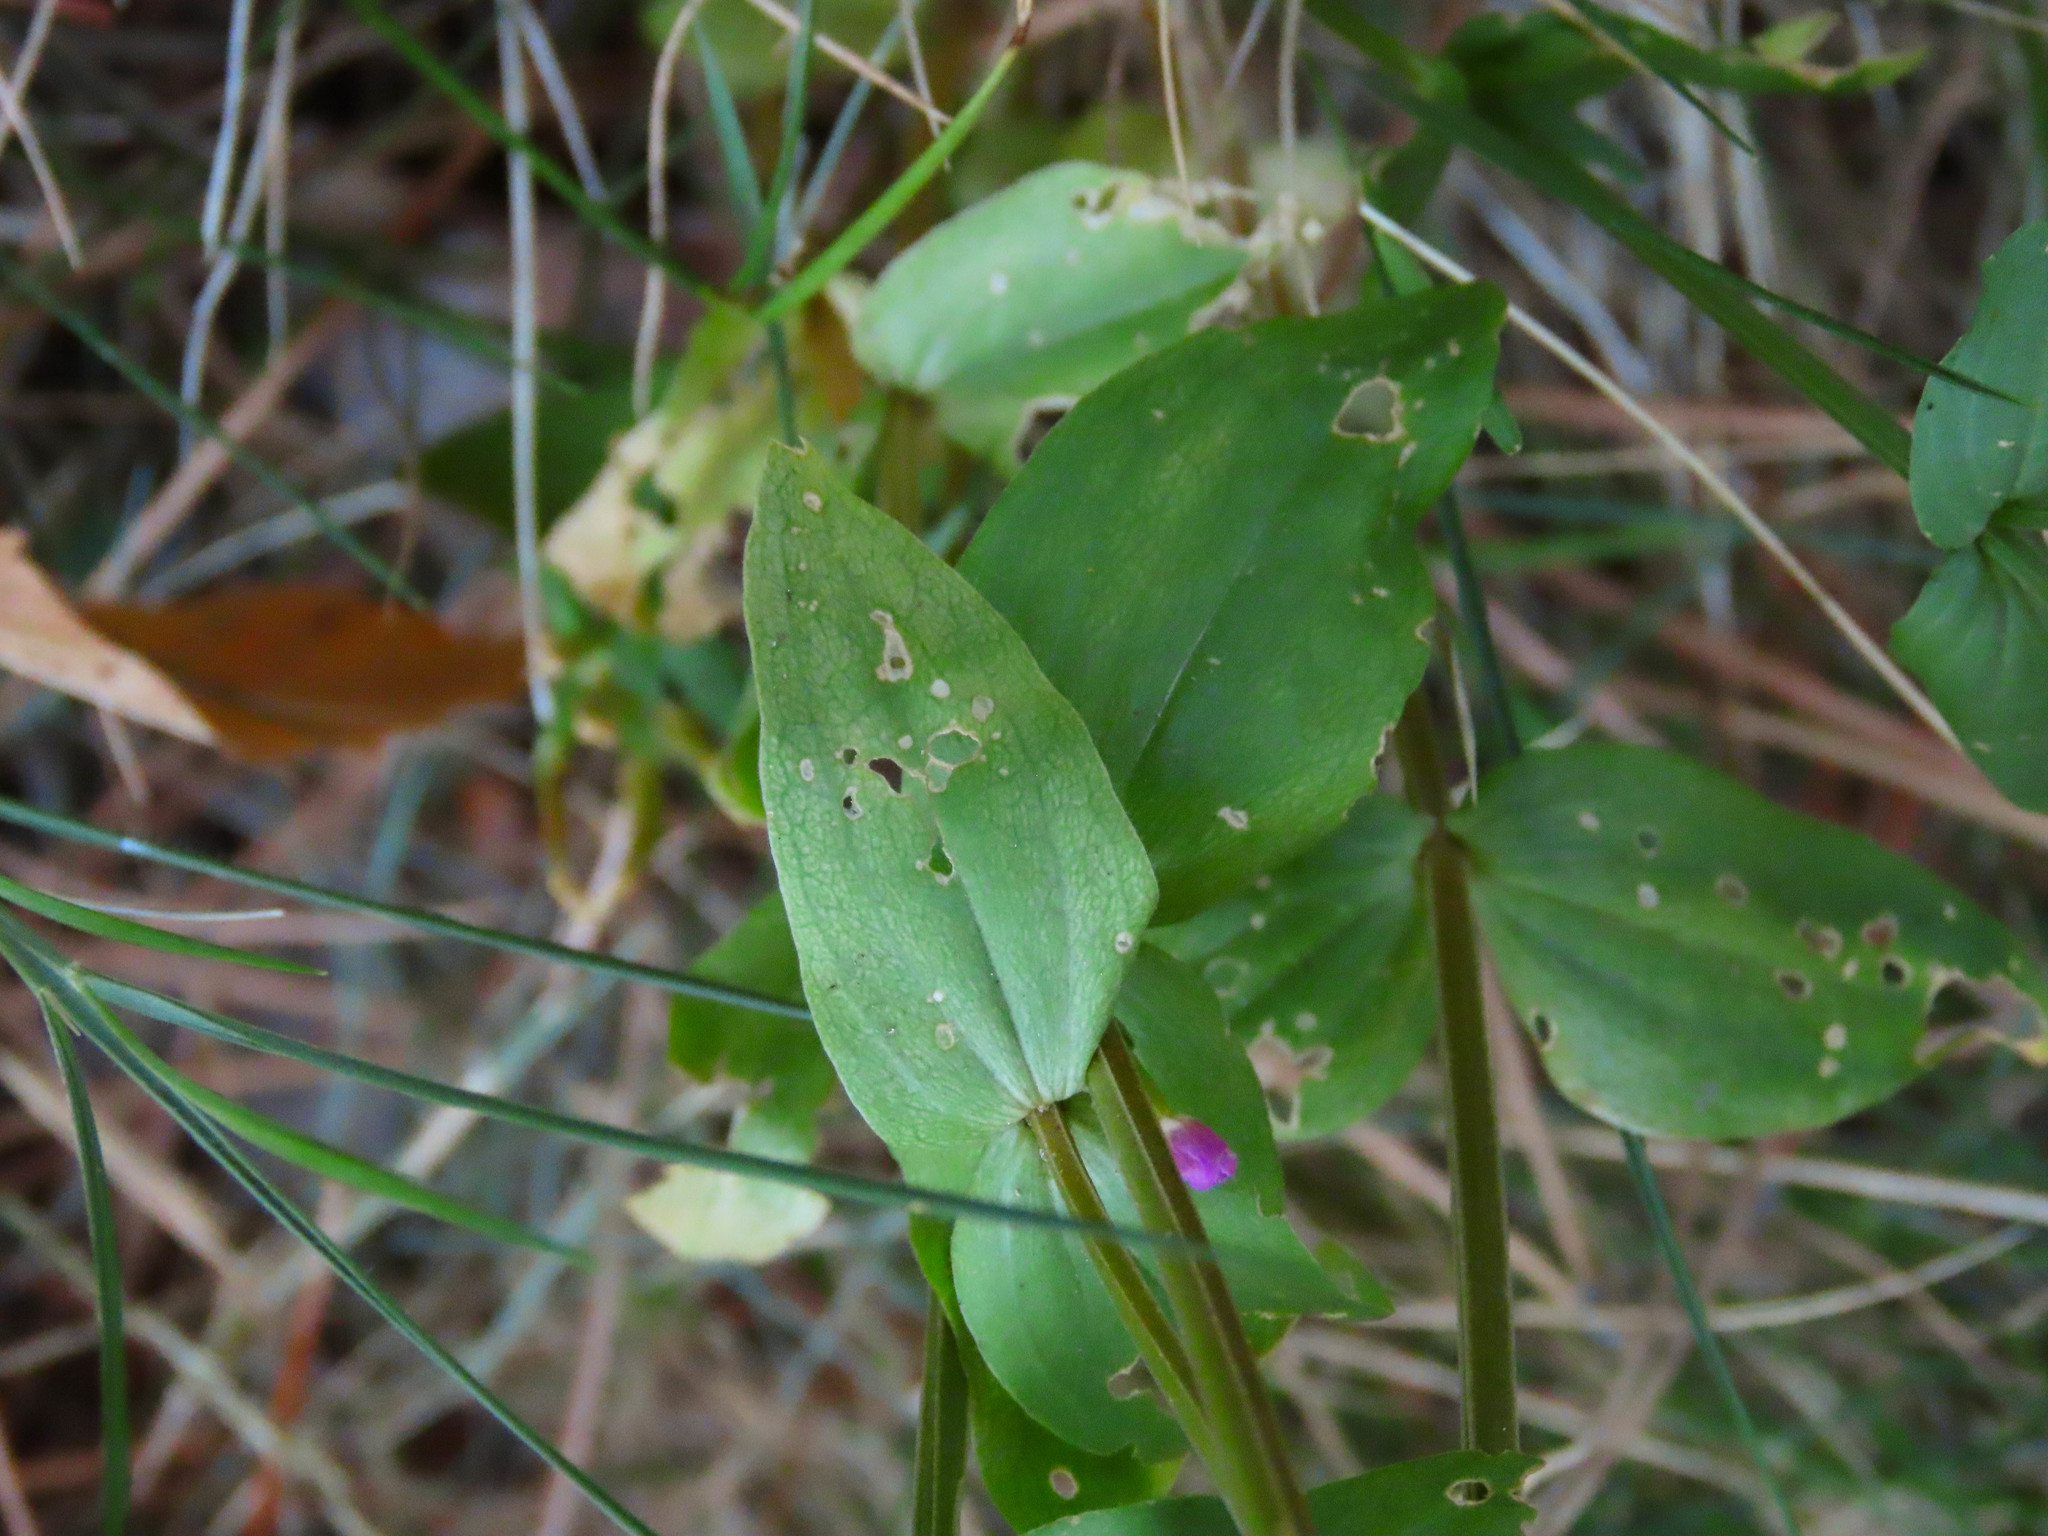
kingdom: Plantae
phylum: Tracheophyta
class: Magnoliopsida
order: Gentianales
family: Gentianaceae
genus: Centaurium
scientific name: Centaurium erythraea
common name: Common centaury
